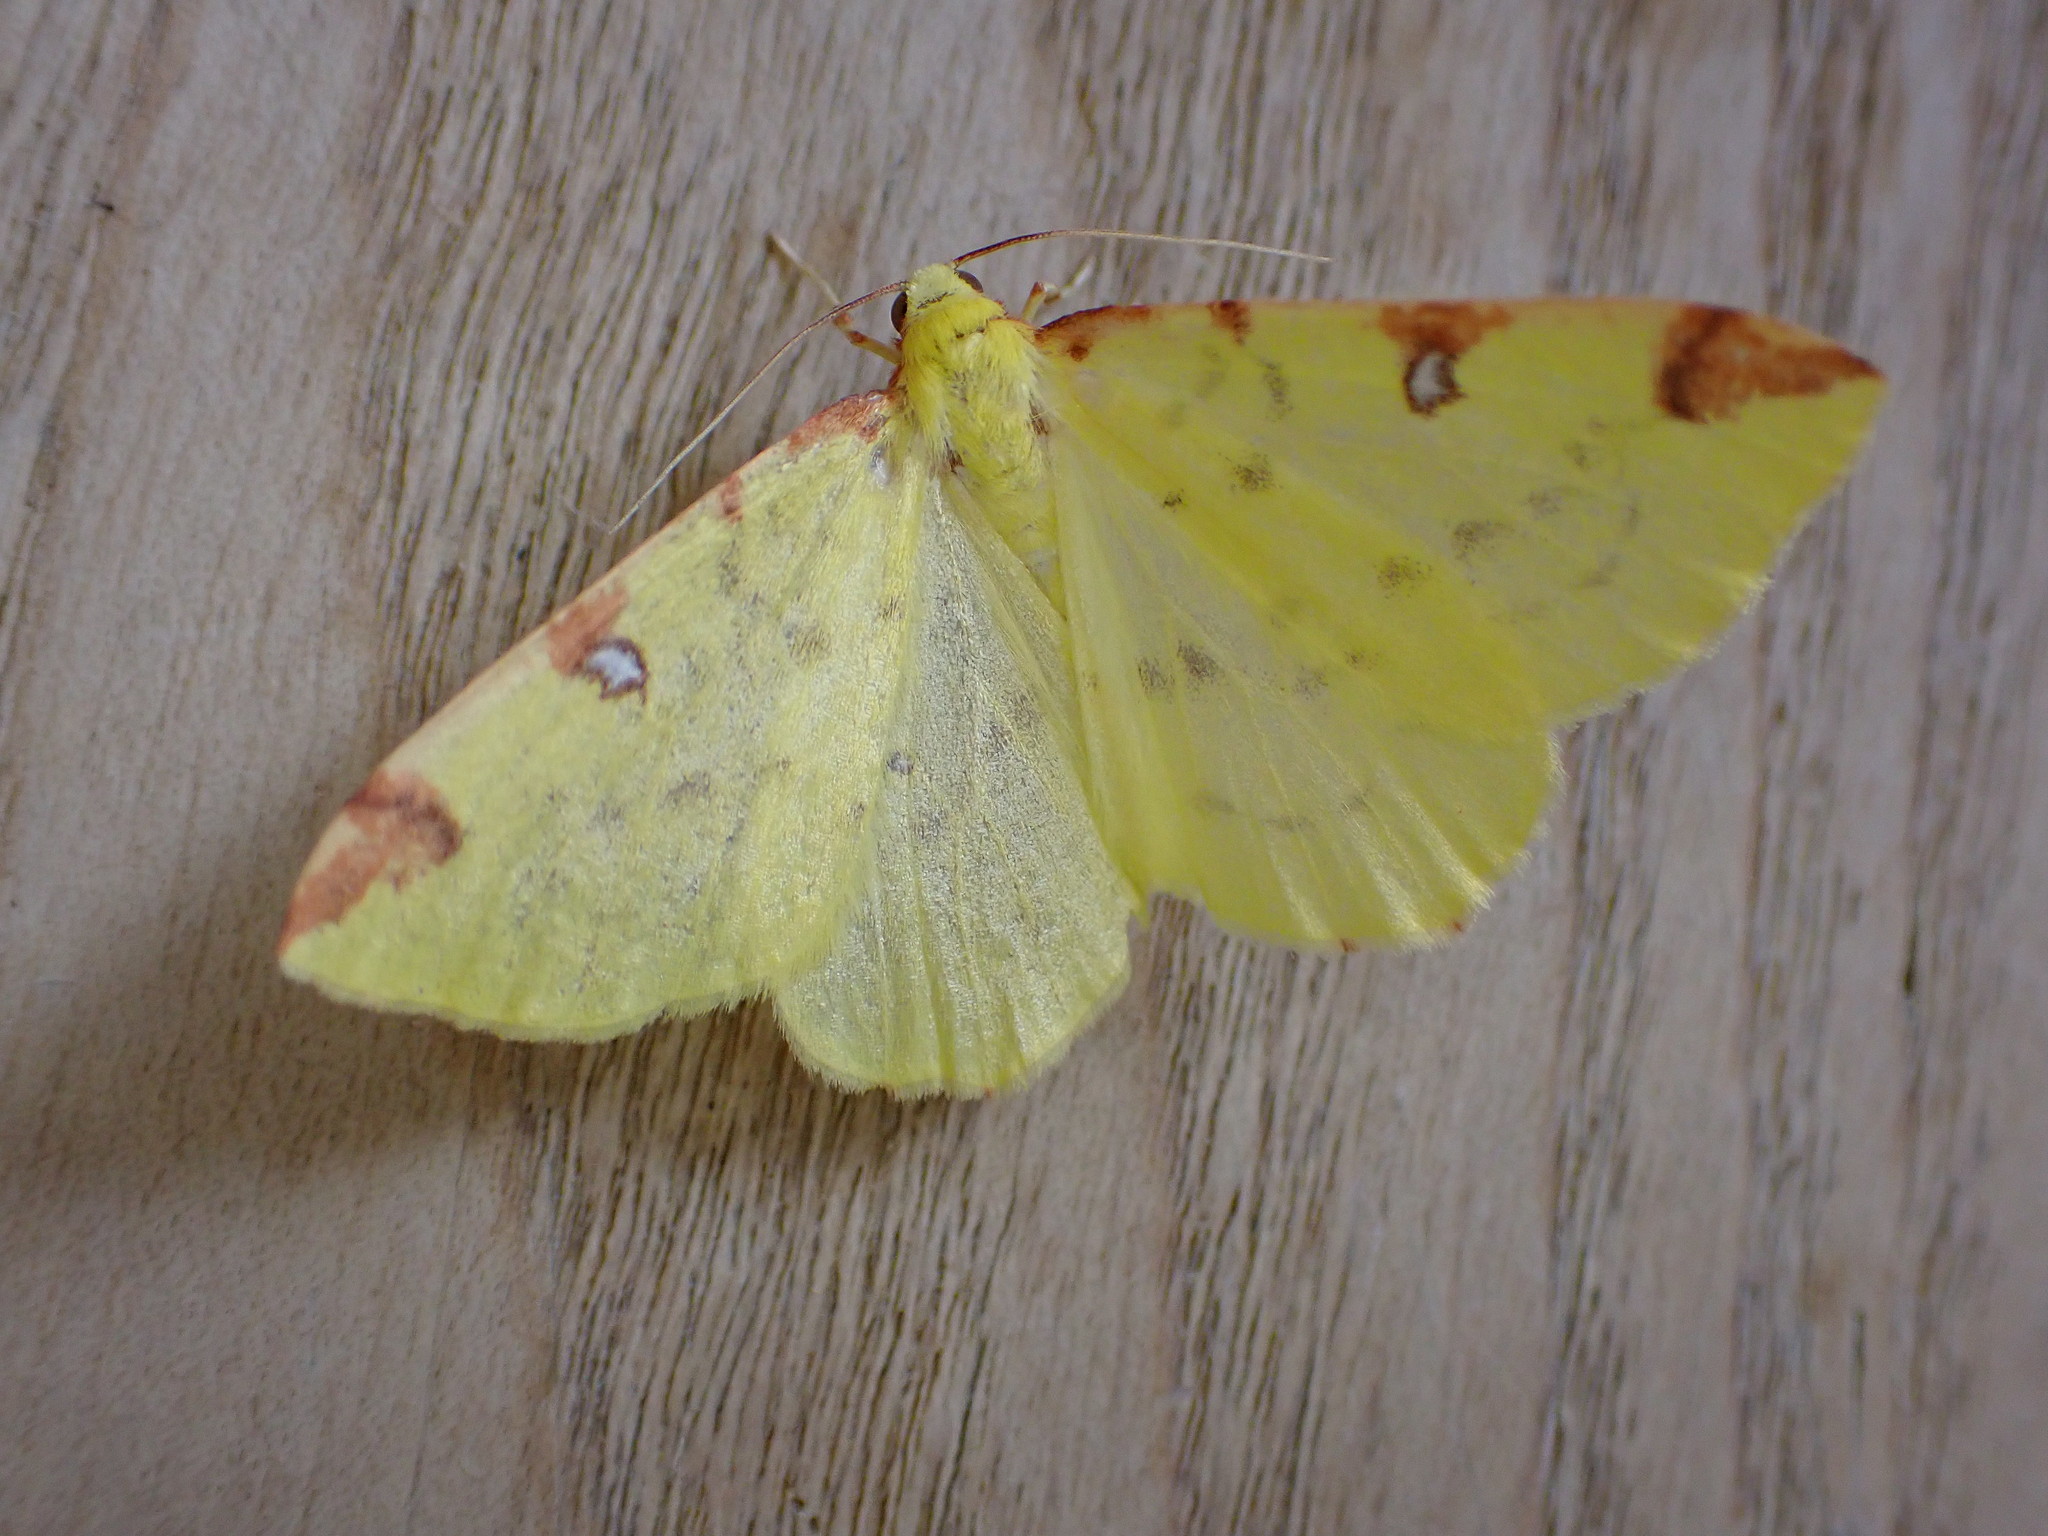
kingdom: Animalia
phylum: Arthropoda
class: Insecta
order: Lepidoptera
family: Geometridae
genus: Opisthograptis
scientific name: Opisthograptis luteolata
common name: Brimstone moth
